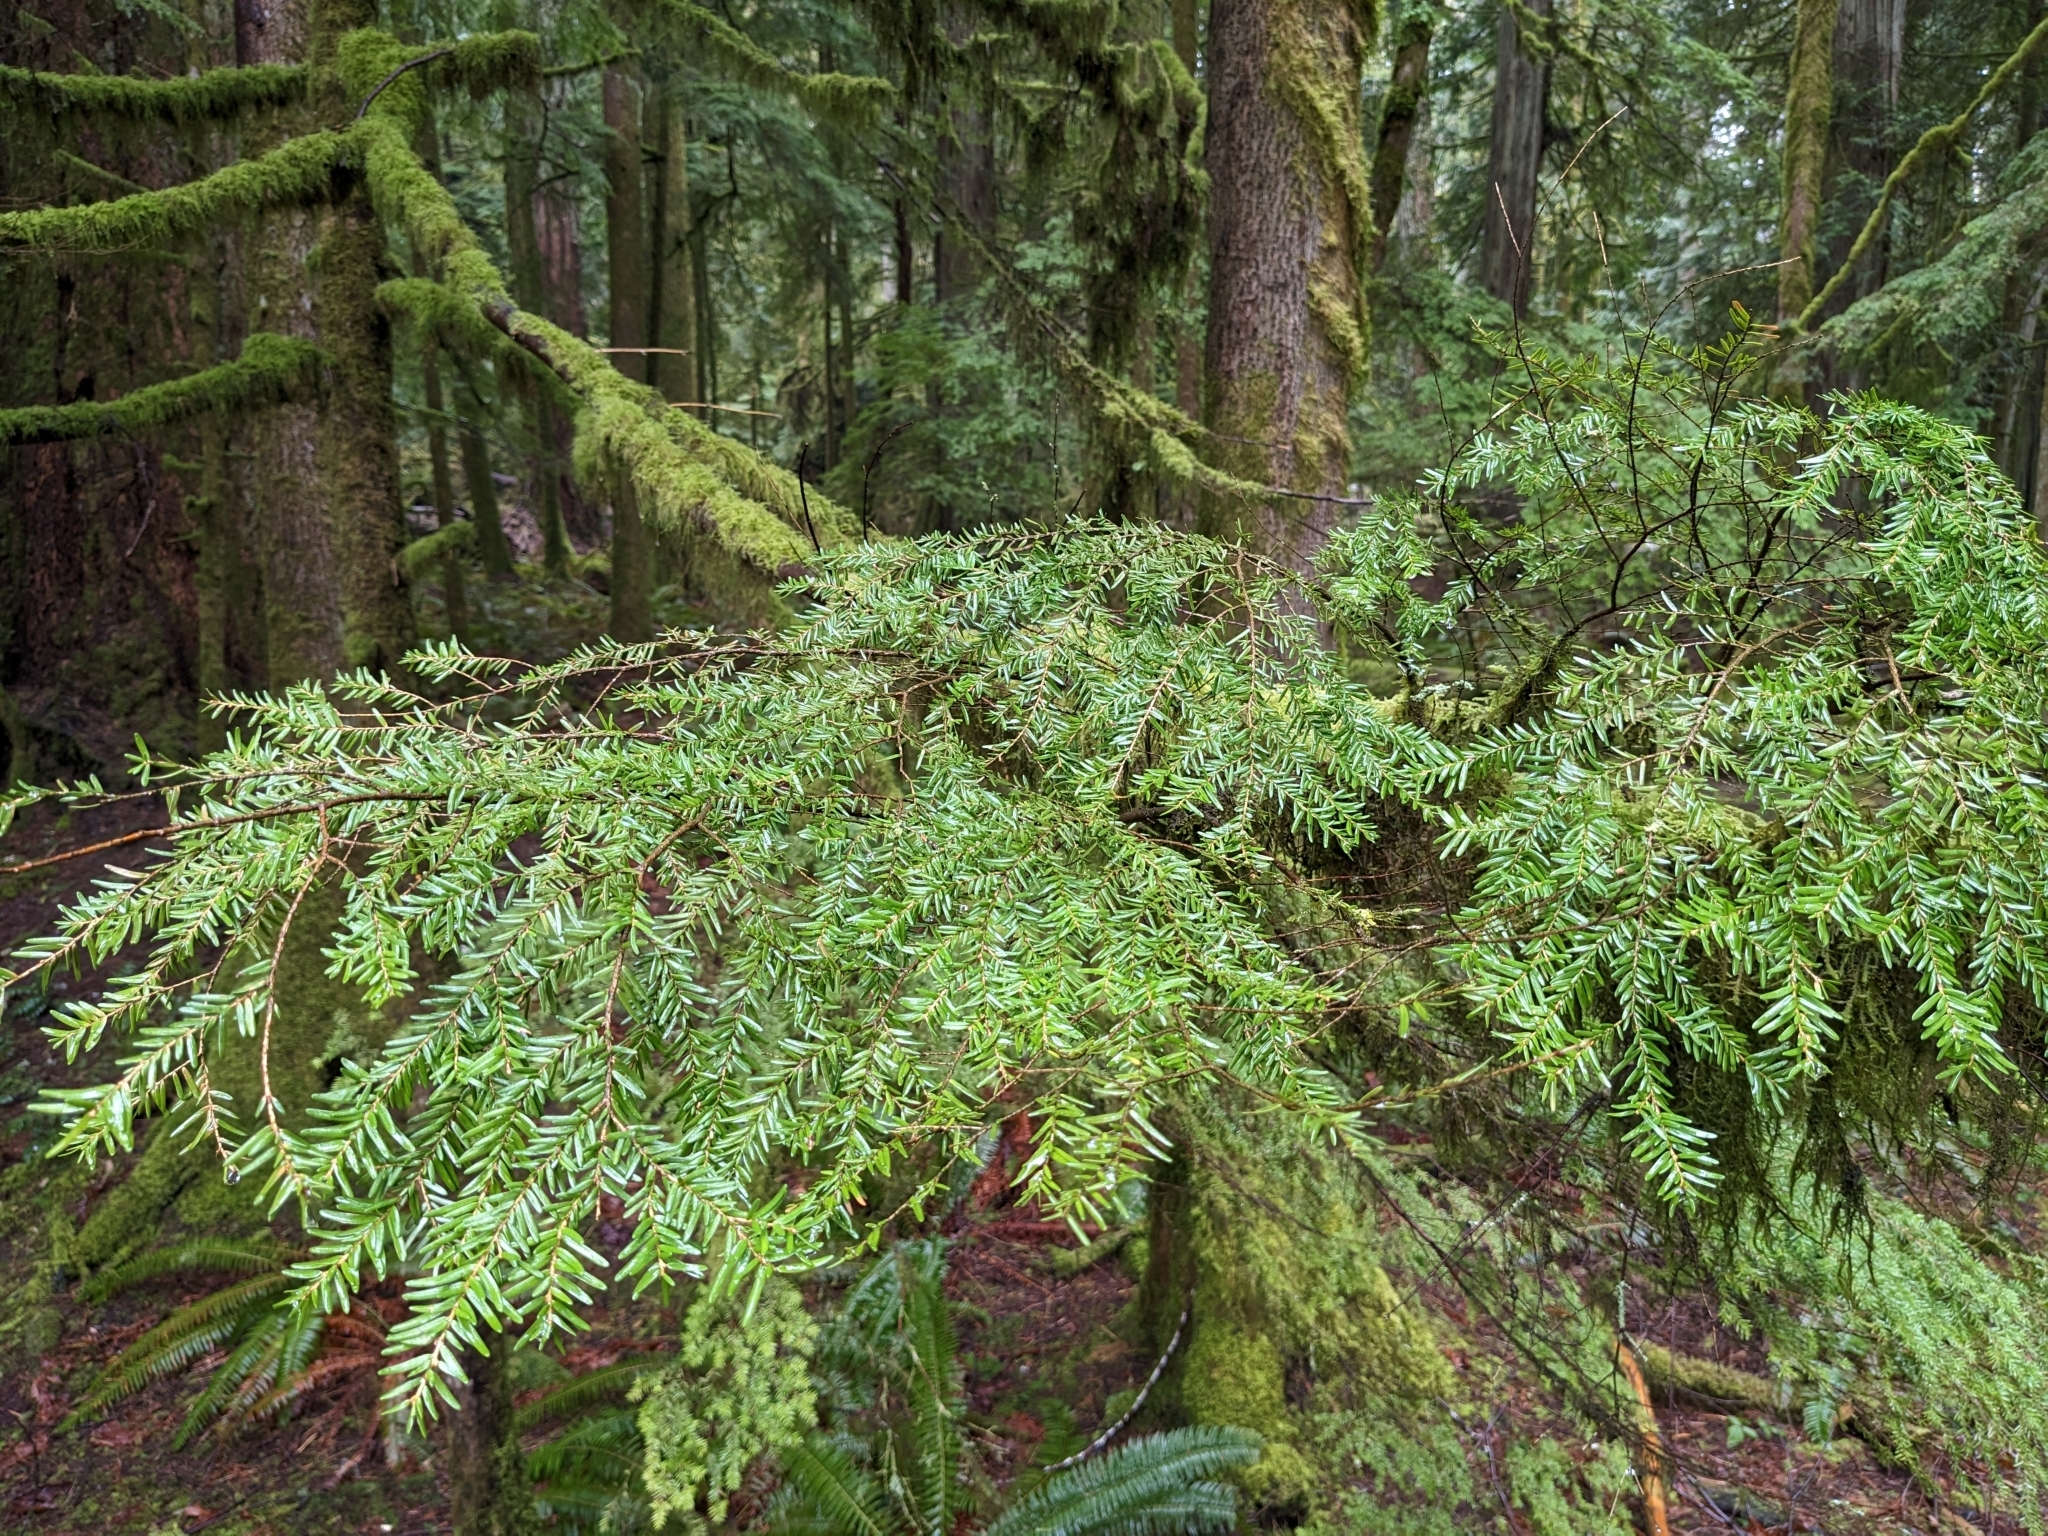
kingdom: Plantae
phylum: Tracheophyta
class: Pinopsida
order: Pinales
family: Pinaceae
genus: Tsuga
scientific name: Tsuga heterophylla
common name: Western hemlock
